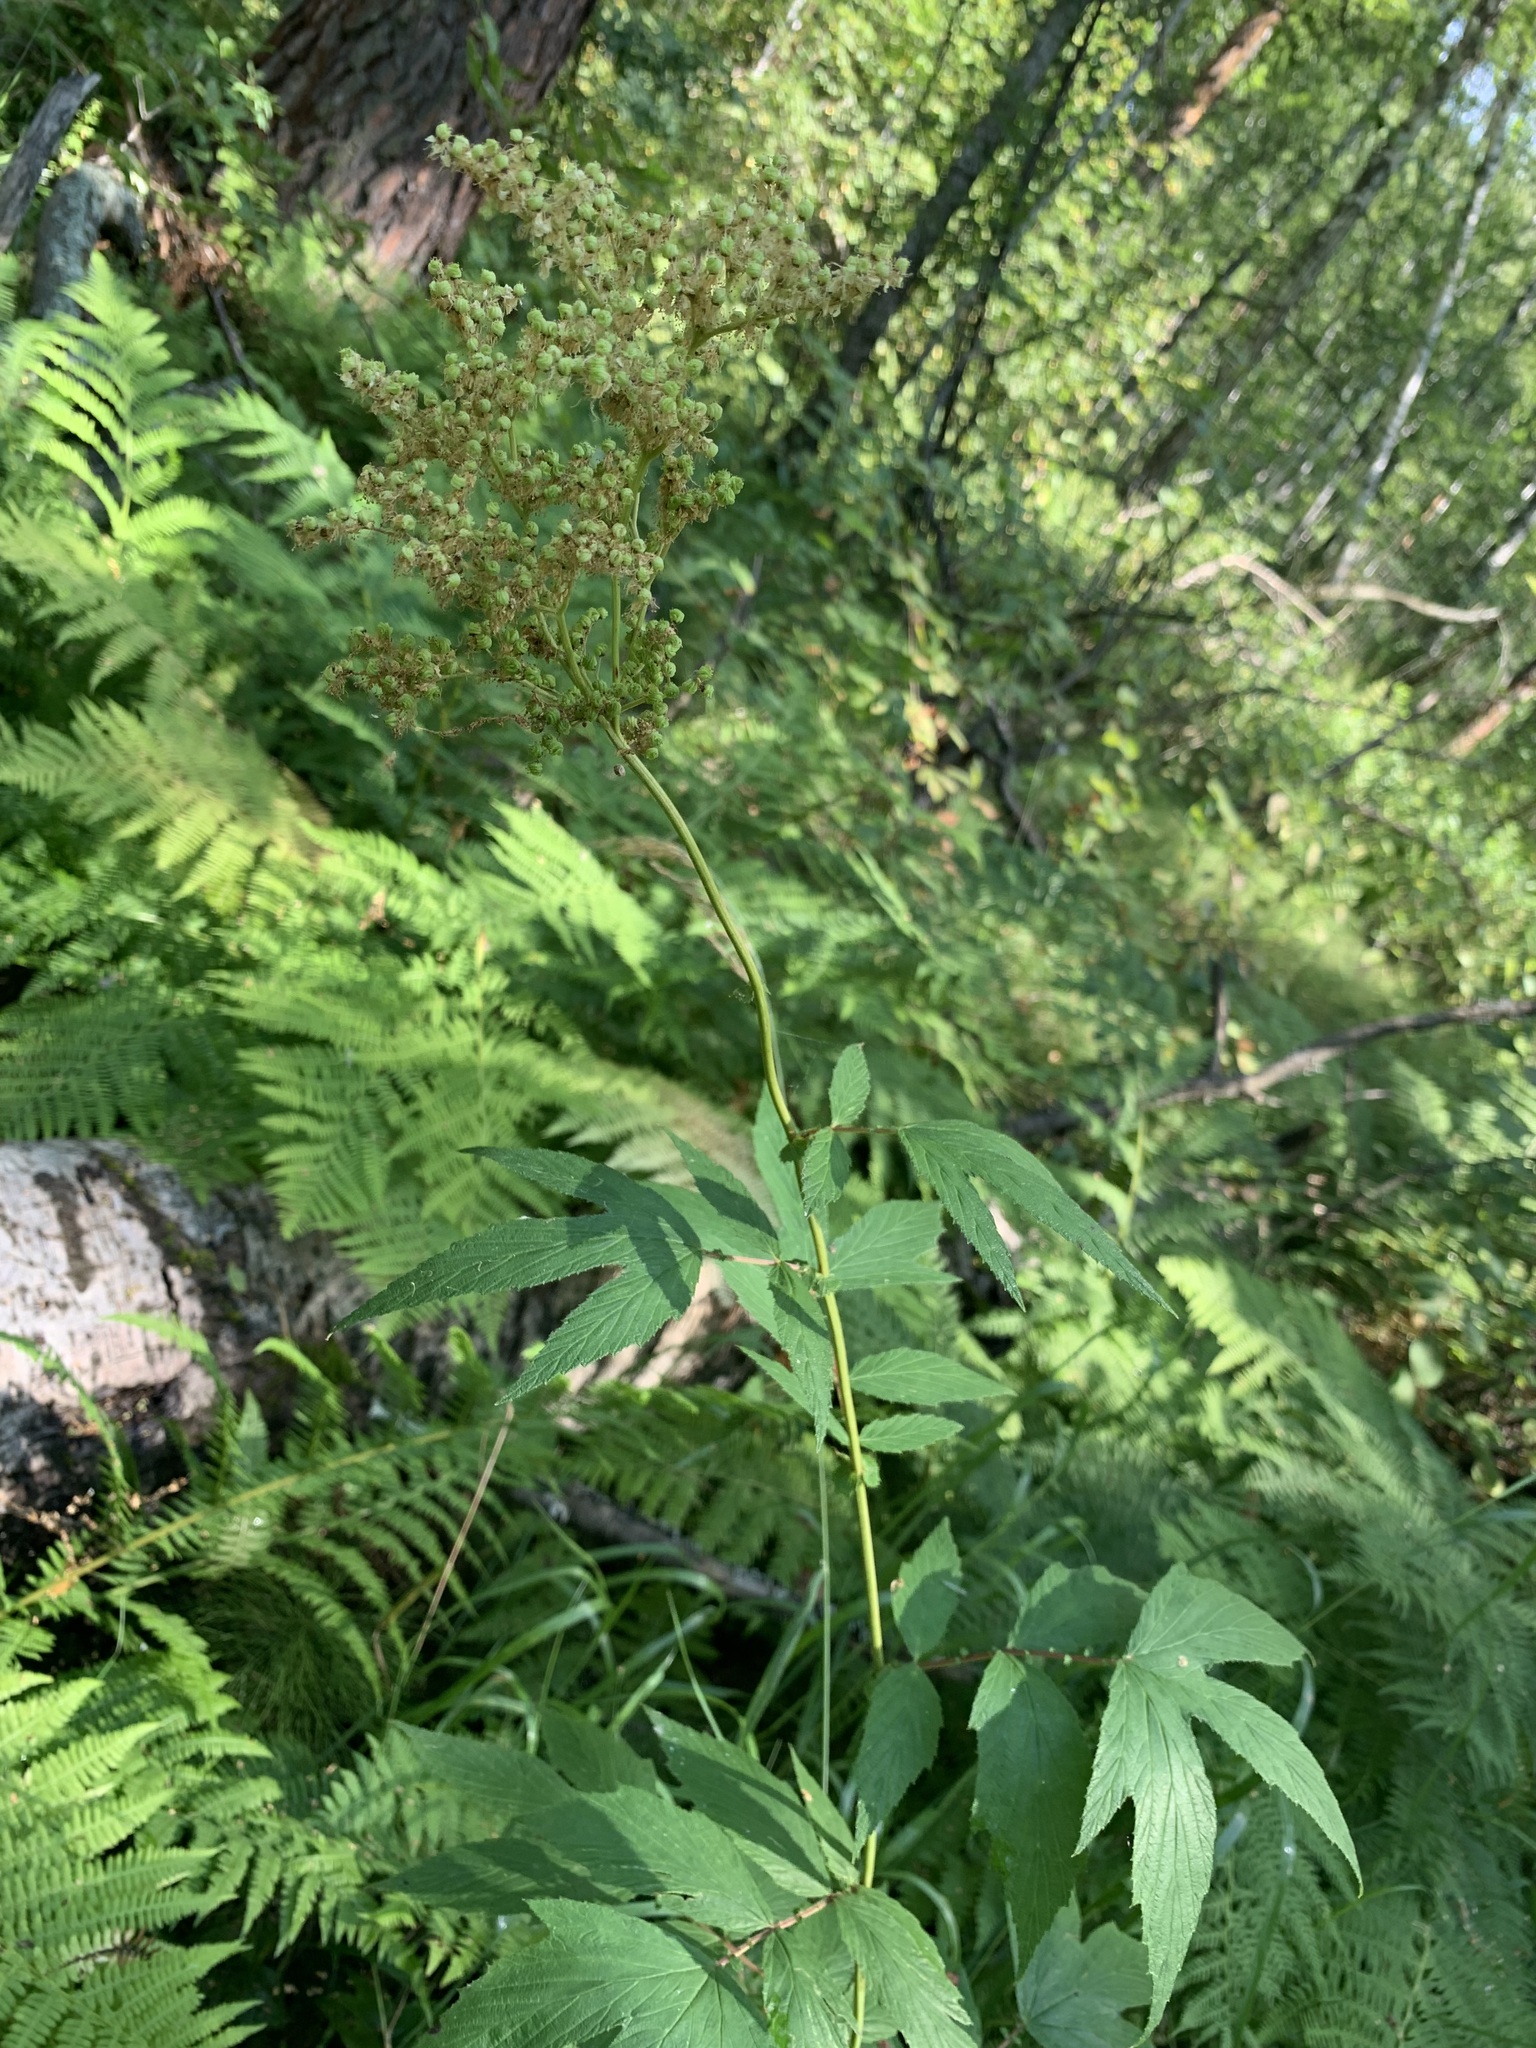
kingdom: Plantae
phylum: Tracheophyta
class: Magnoliopsida
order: Rosales
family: Rosaceae
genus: Filipendula
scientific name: Filipendula ulmaria
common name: Meadowsweet
